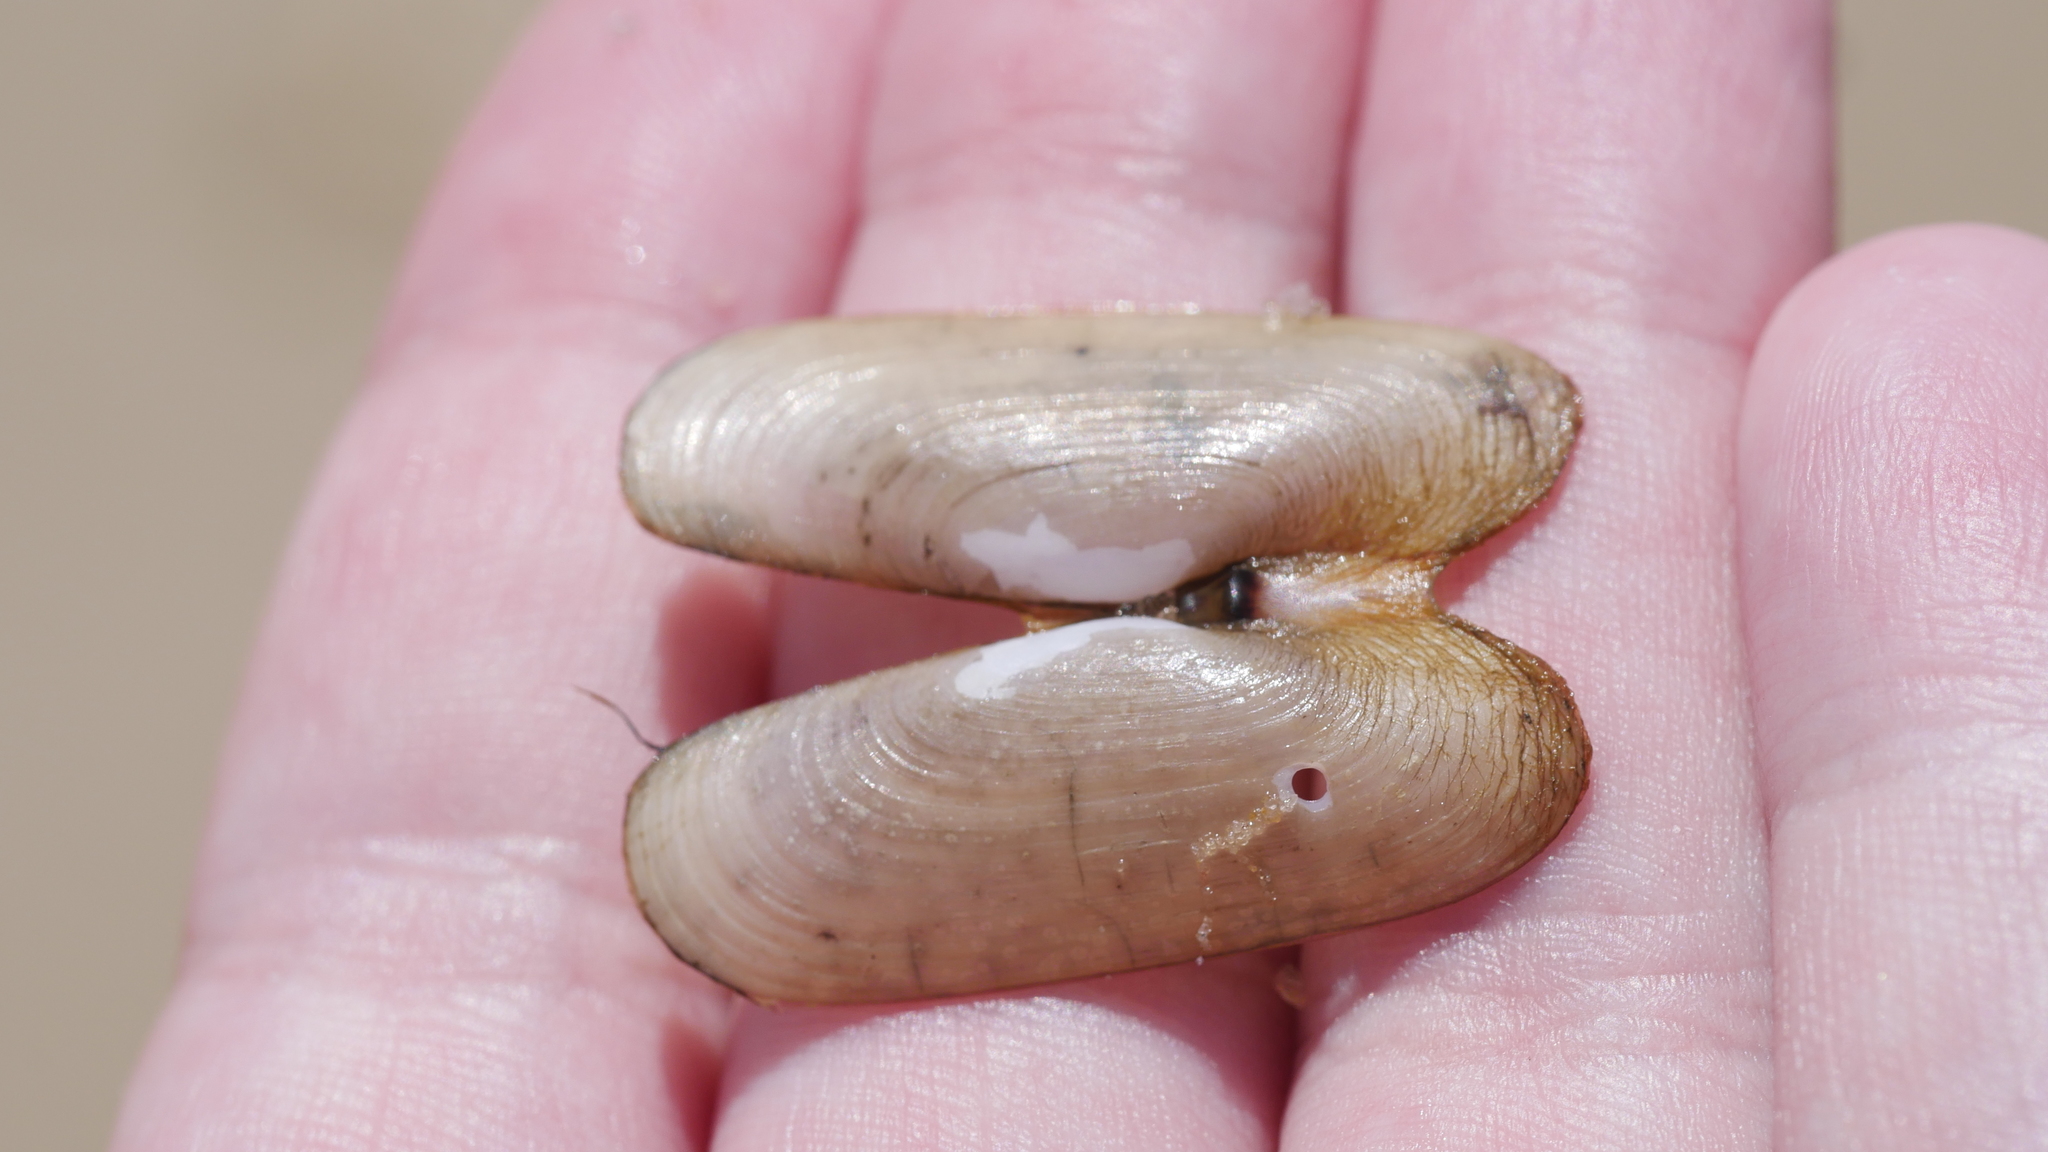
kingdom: Animalia
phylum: Mollusca
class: Bivalvia
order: Cardiida
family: Solecurtidae
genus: Tagelus
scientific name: Tagelus plebeius
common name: Stout tagelus
